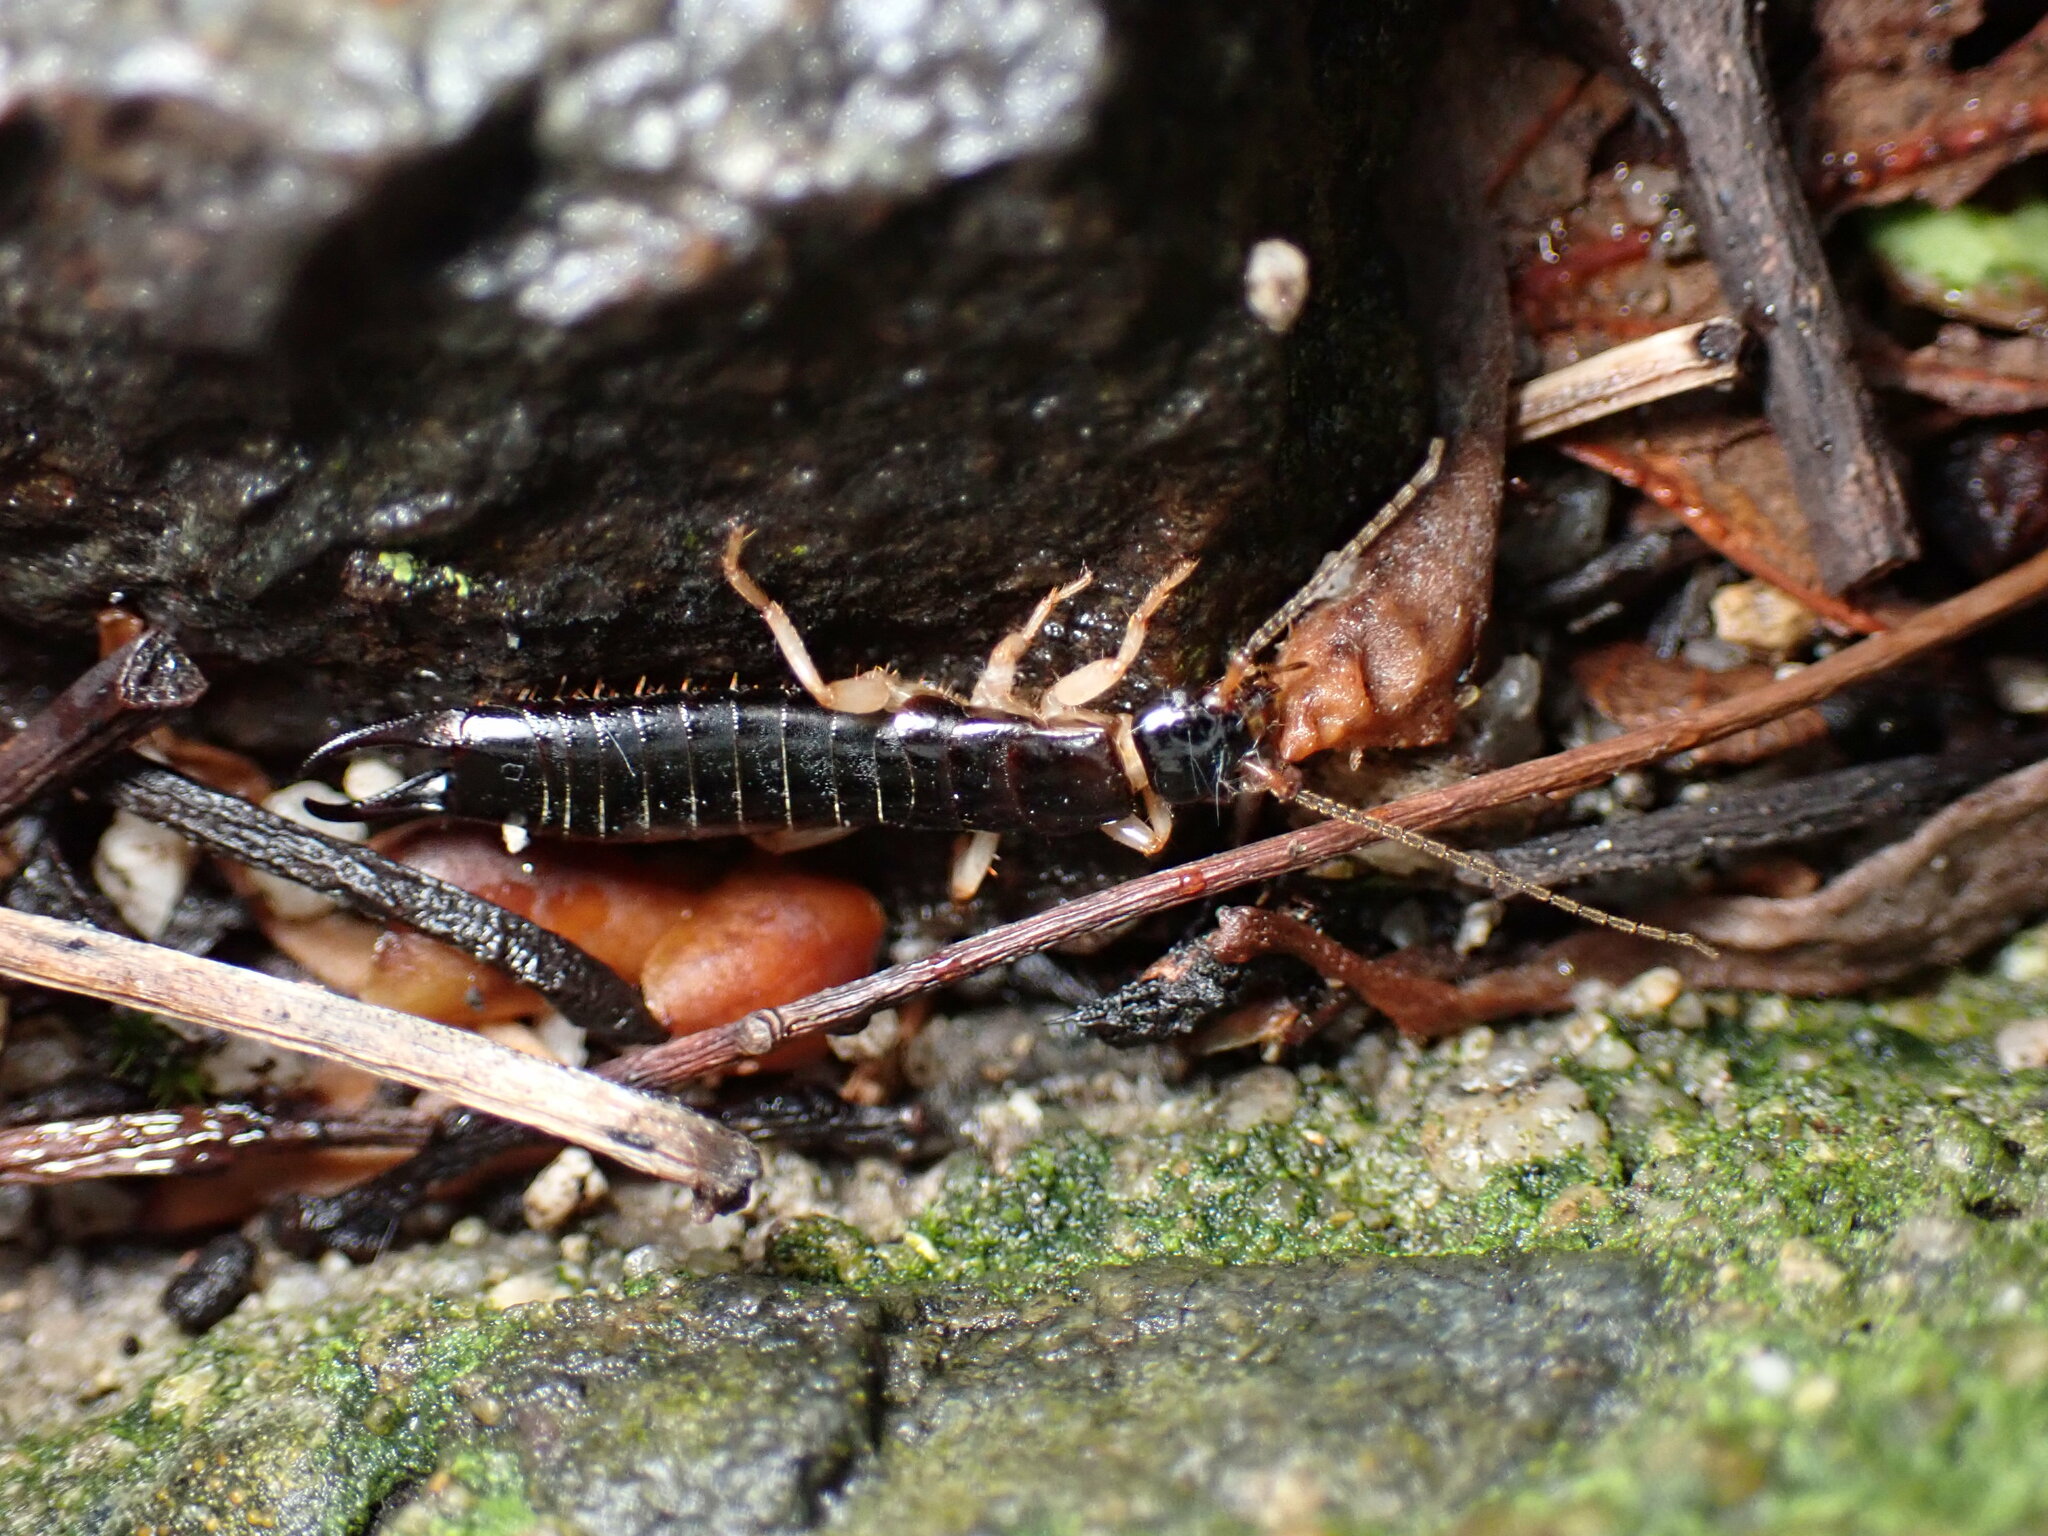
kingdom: Animalia
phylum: Arthropoda
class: Insecta
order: Dermaptera
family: Anisolabididae
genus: Anisolabis
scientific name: Anisolabis maritima
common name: Maritime earwig
